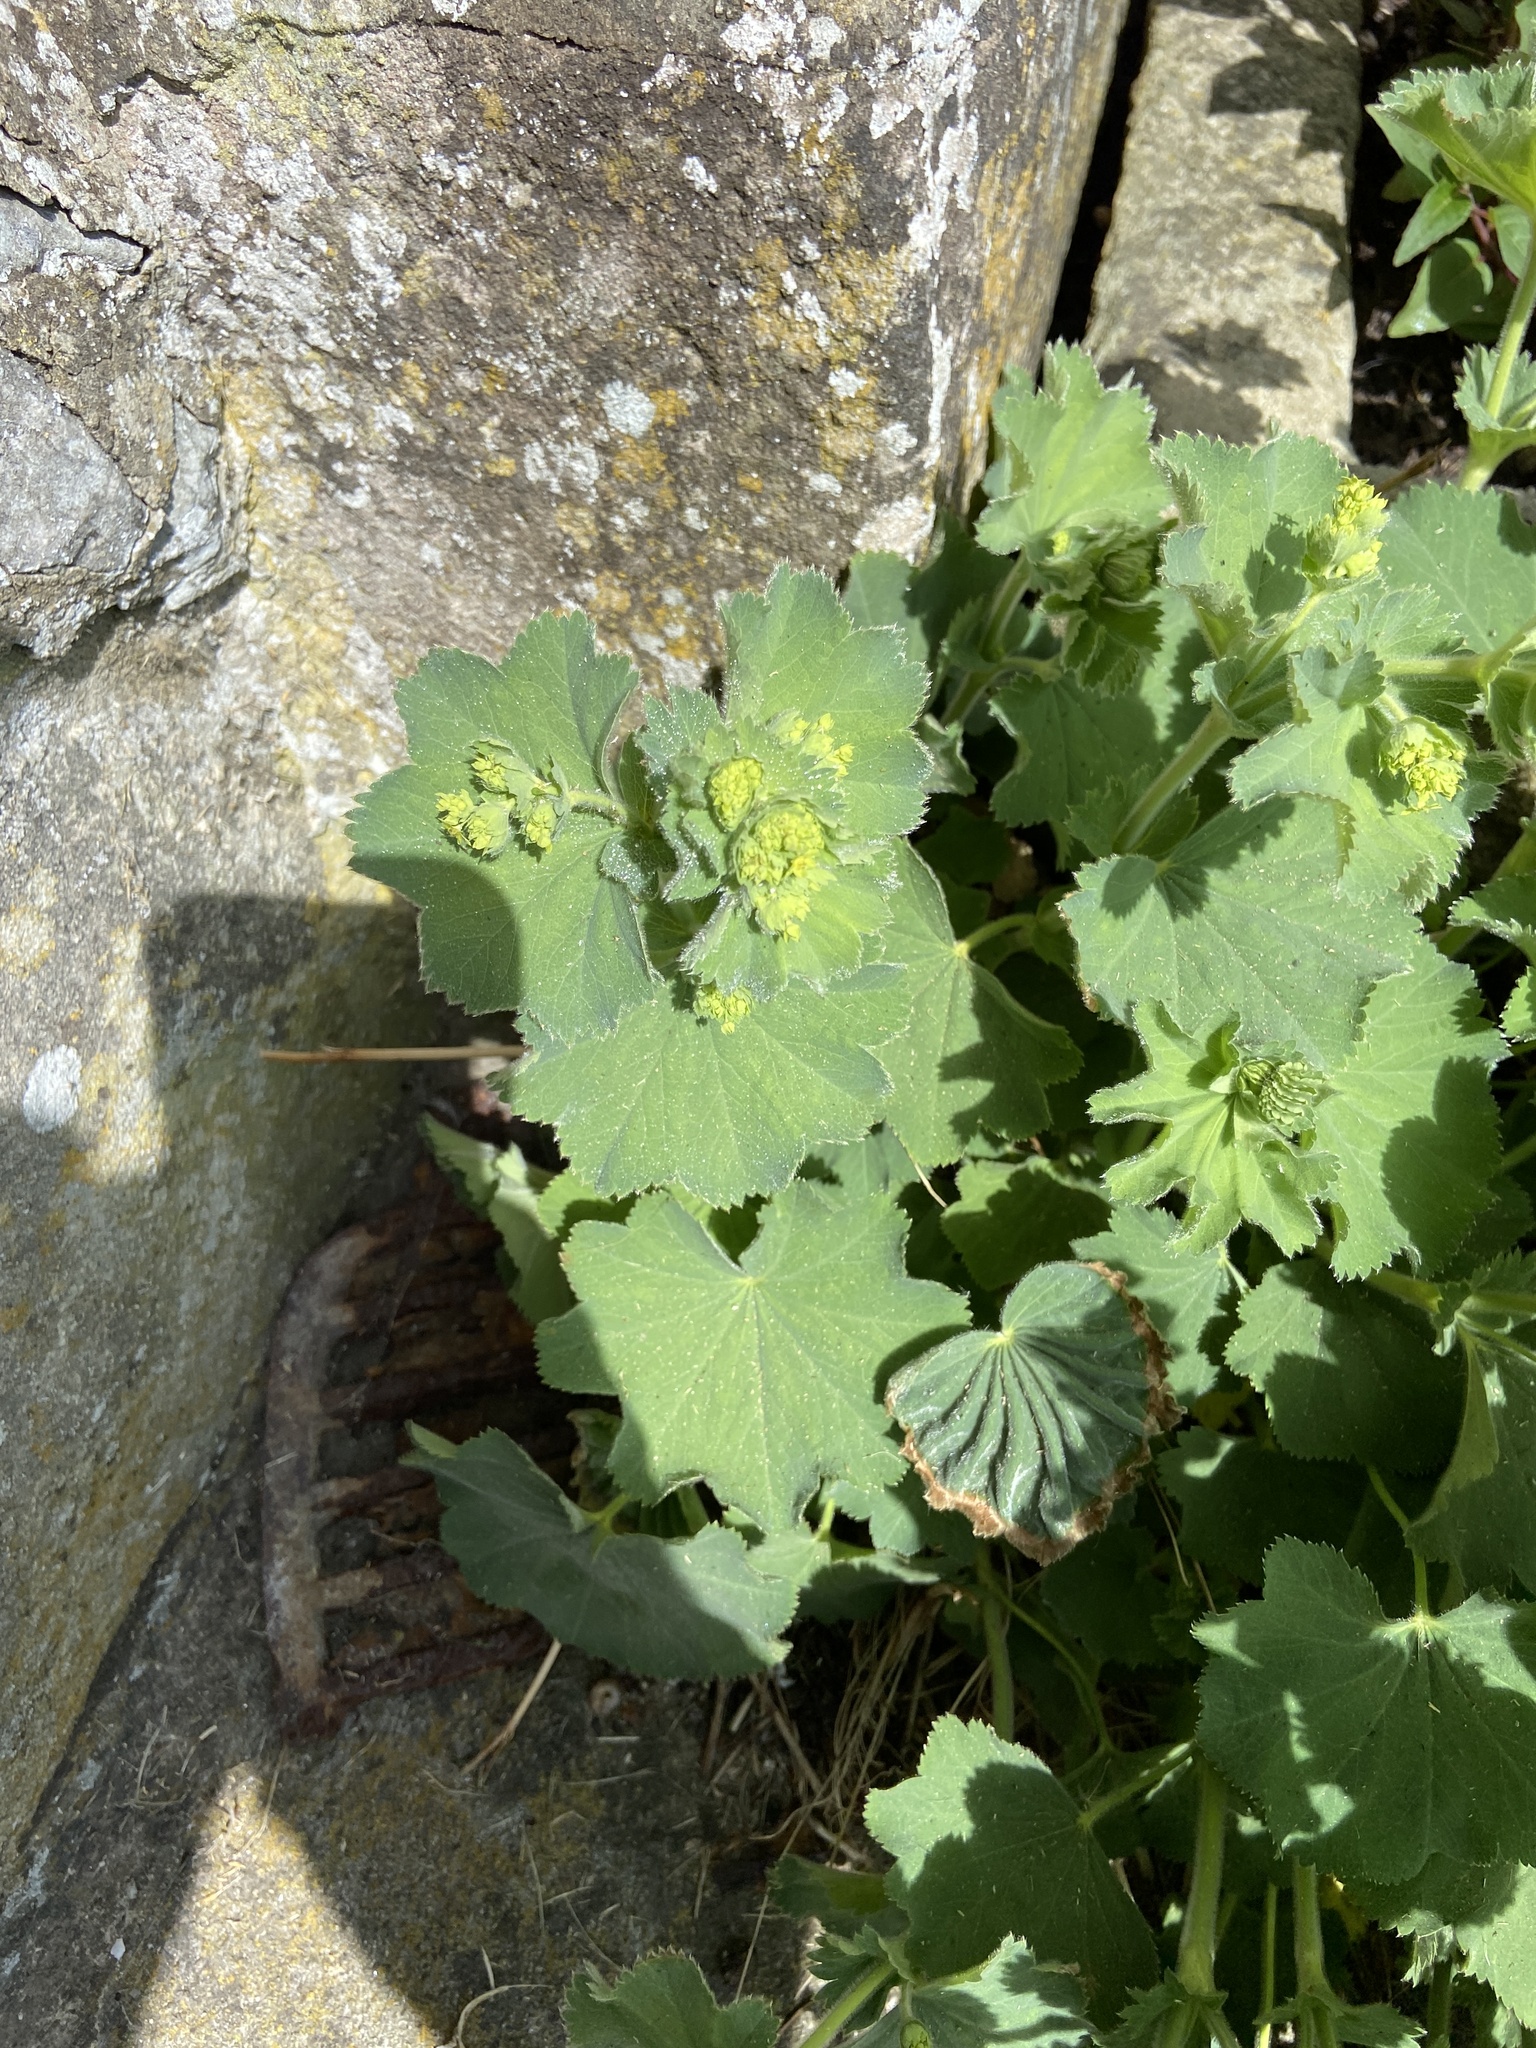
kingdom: Plantae
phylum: Tracheophyta
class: Magnoliopsida
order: Rosales
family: Rosaceae
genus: Alchemilla
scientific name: Alchemilla mollis
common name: Lady's-mantle
